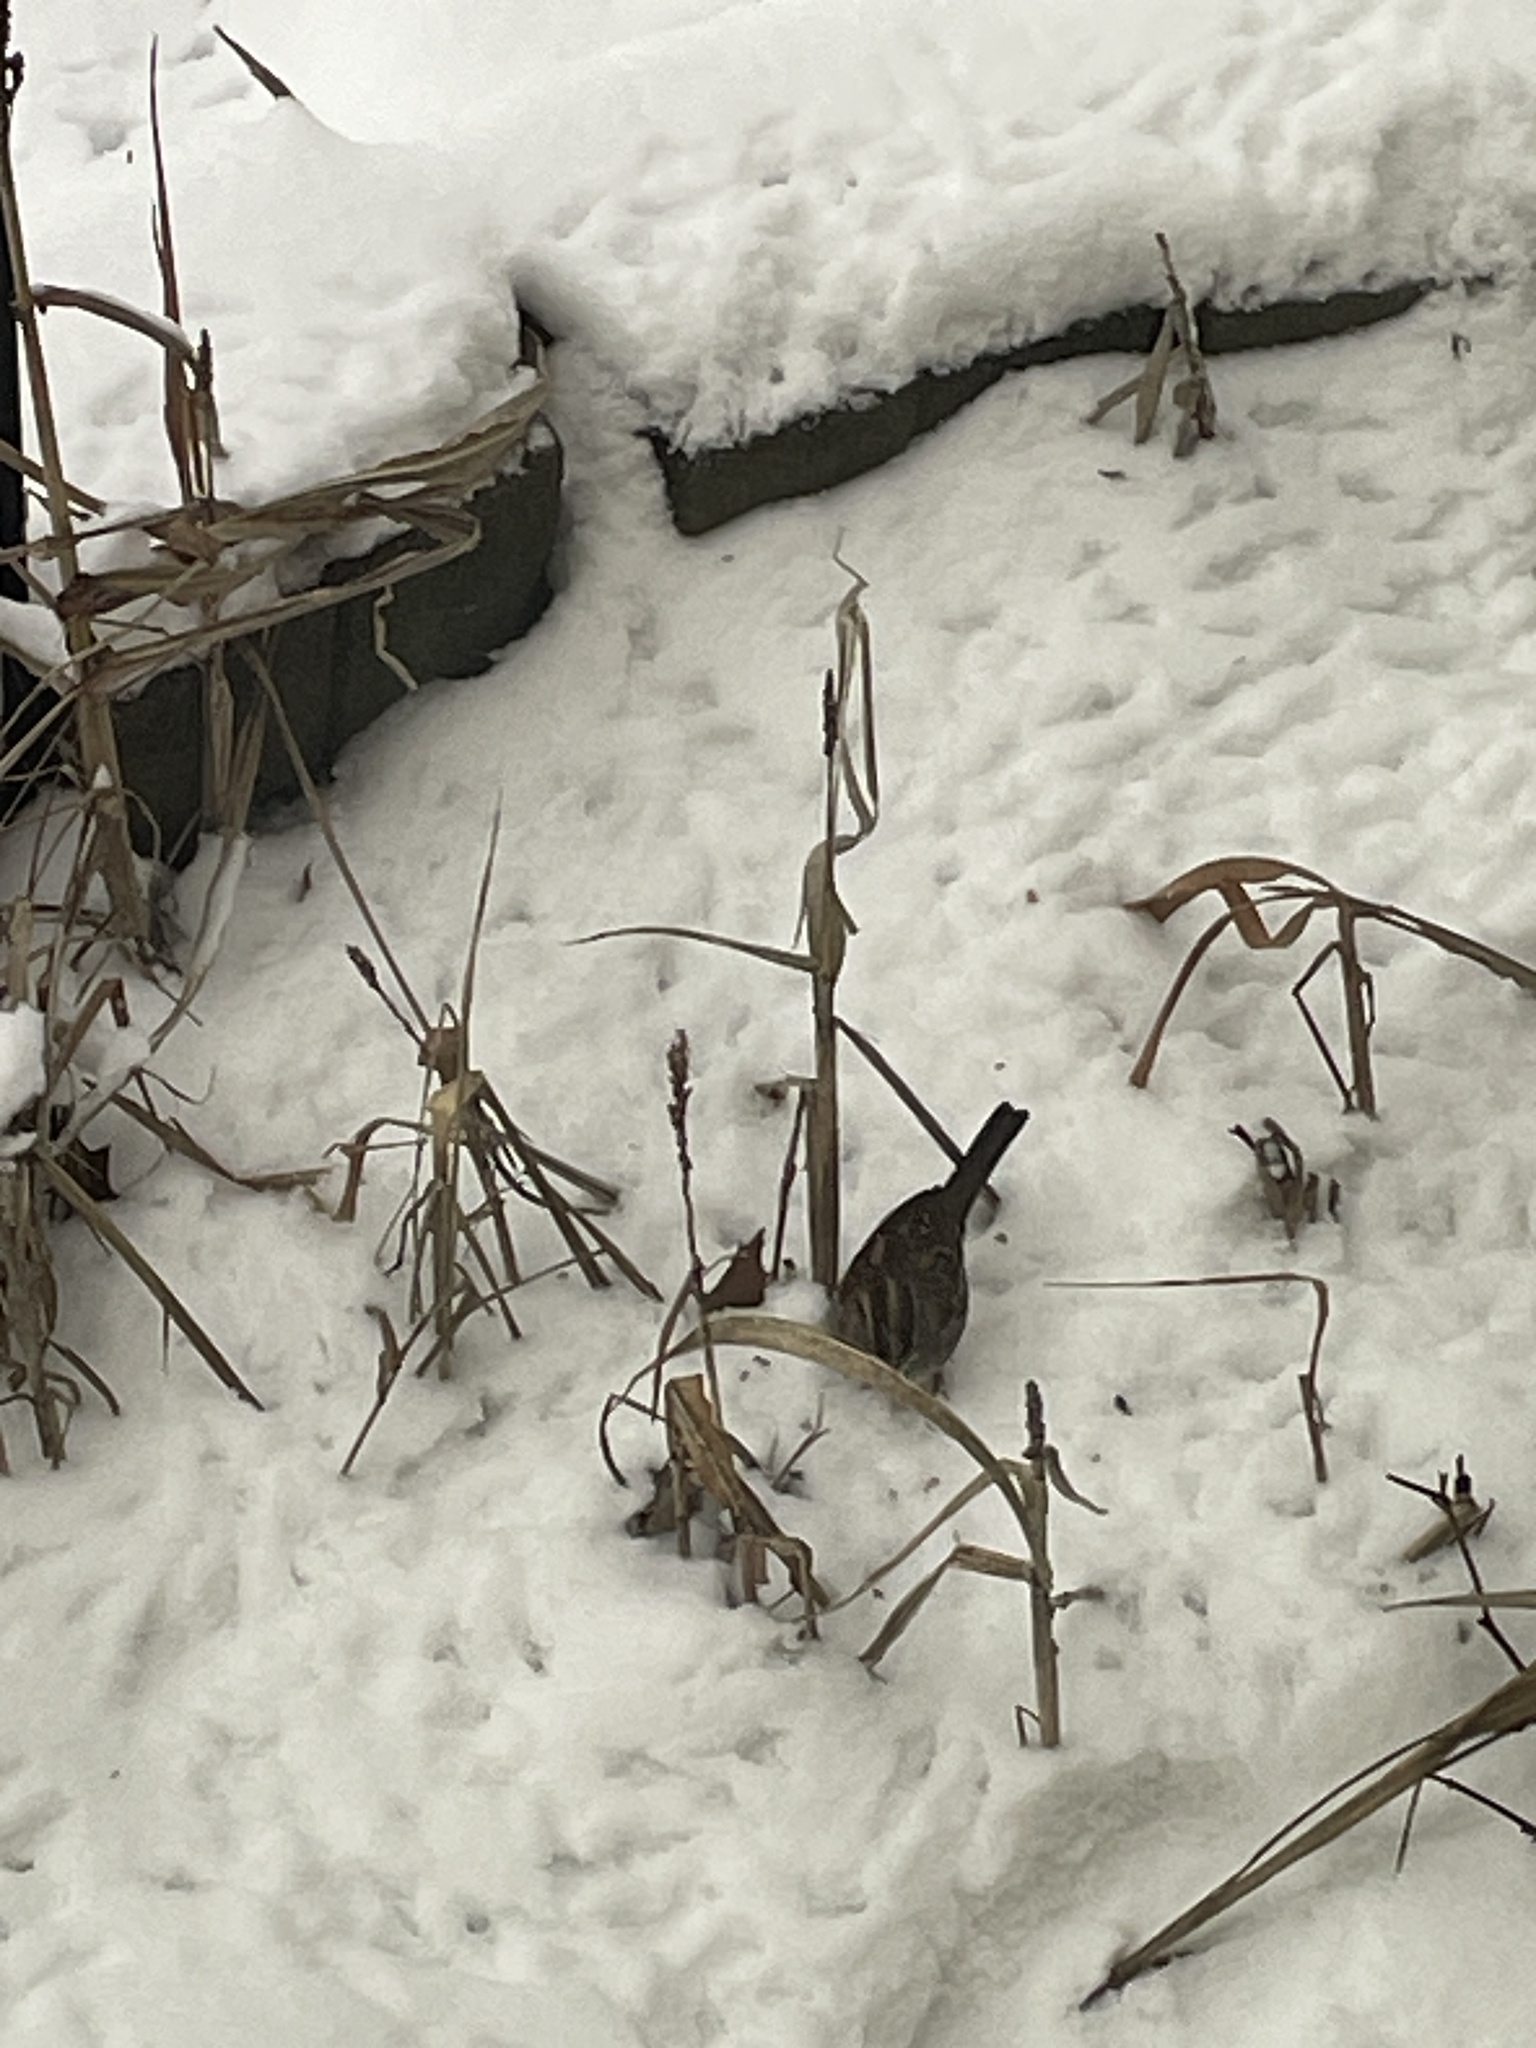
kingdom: Animalia
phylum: Chordata
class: Aves
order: Passeriformes
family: Passerellidae
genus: Zonotrichia
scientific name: Zonotrichia albicollis
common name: White-throated sparrow
